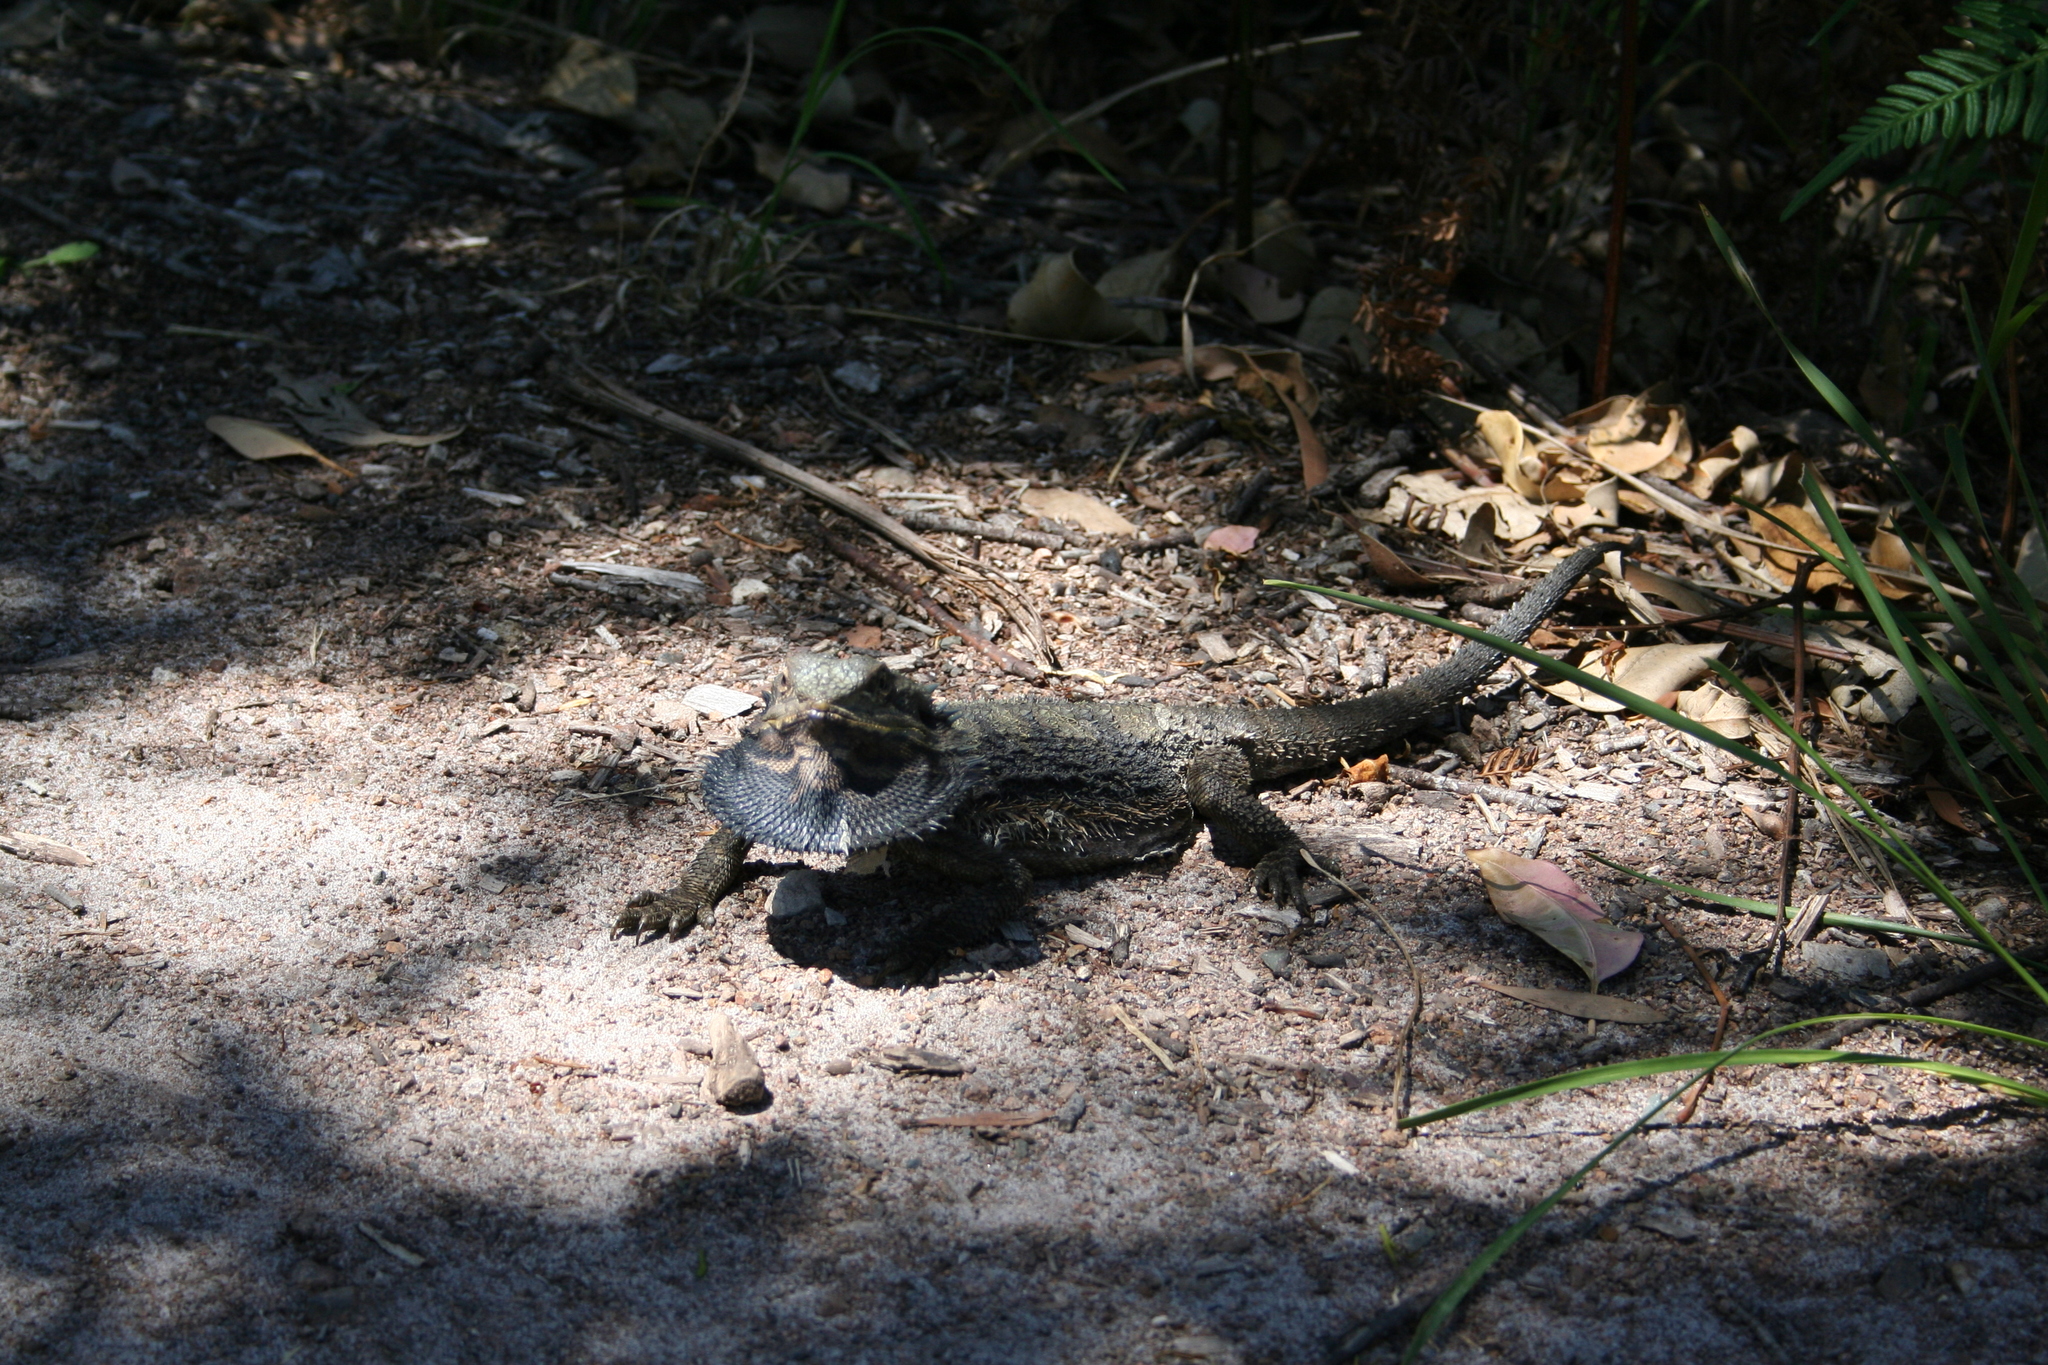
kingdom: Animalia
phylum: Chordata
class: Squamata
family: Agamidae
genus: Pogona
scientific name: Pogona barbata
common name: Bearded dragon
